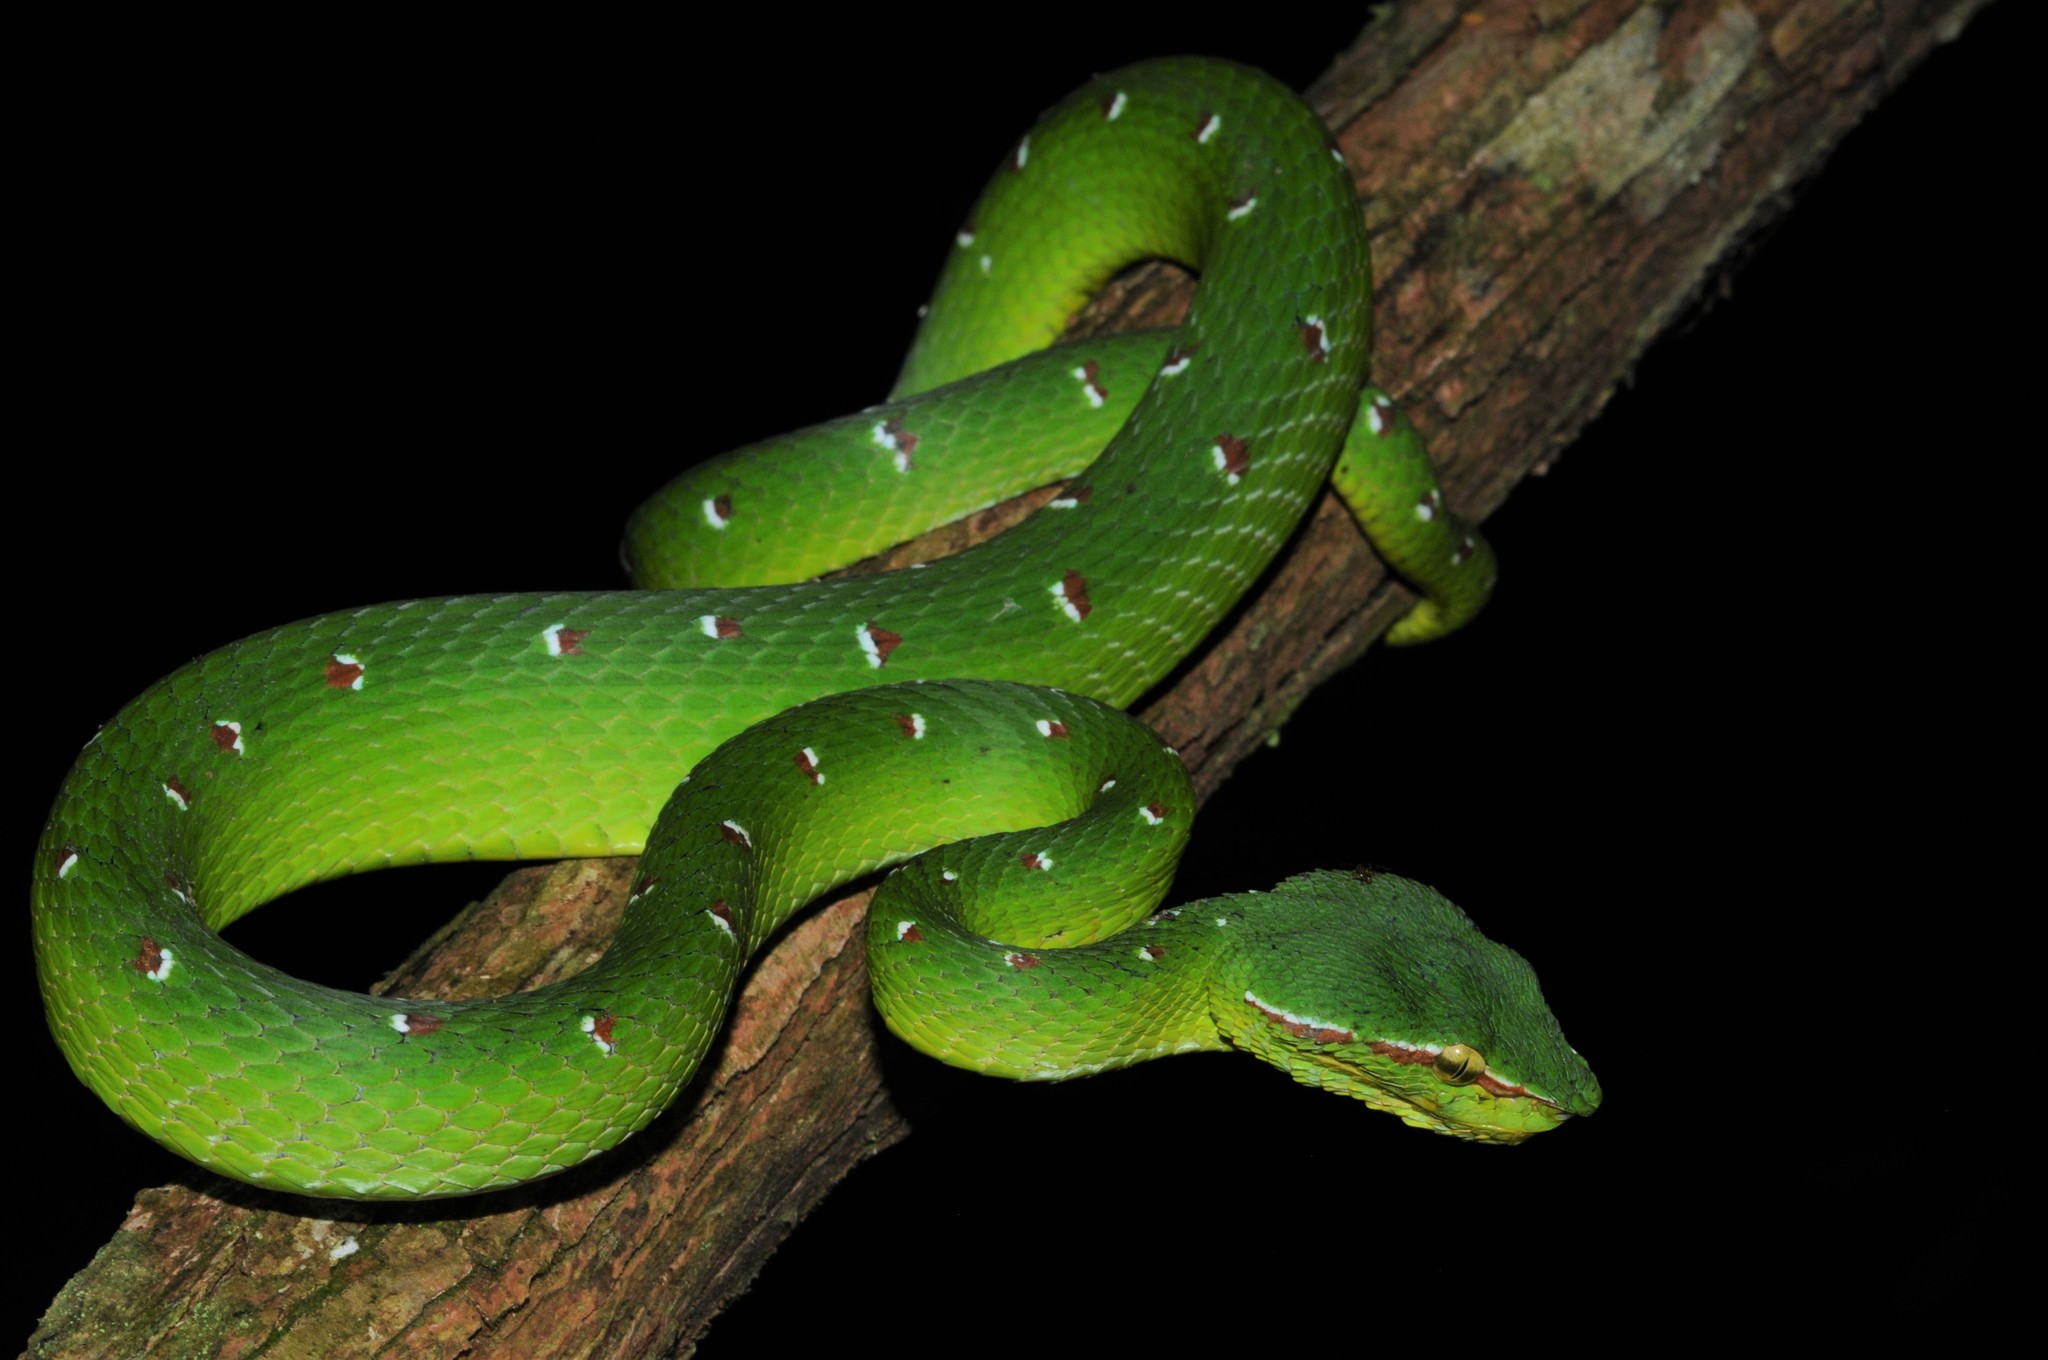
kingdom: Animalia
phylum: Chordata
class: Squamata
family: Viperidae
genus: Tropidolaemus
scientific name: Tropidolaemus wagleri
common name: Wagler's palm viper
